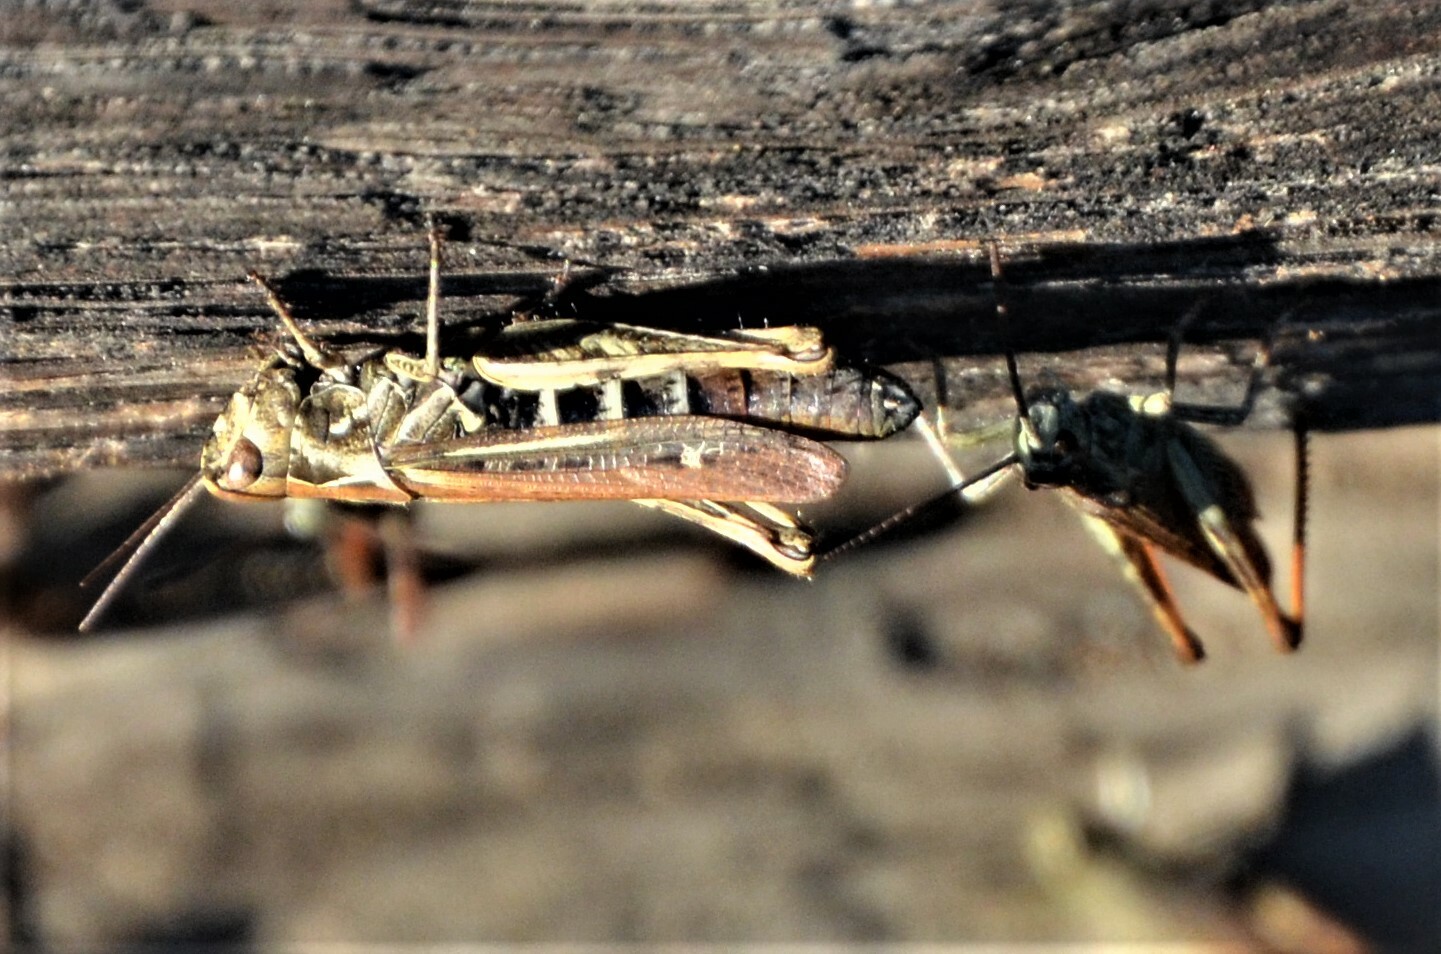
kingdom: Animalia
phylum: Arthropoda
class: Insecta
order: Orthoptera
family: Acrididae
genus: Chorthippus
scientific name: Chorthippus biguttulus
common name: Bow-winged grasshopper
